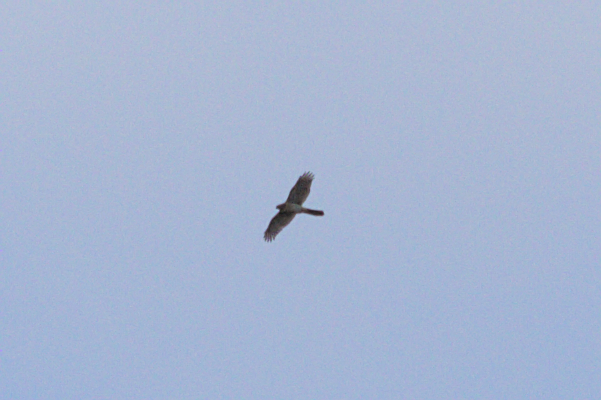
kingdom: Animalia
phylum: Chordata
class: Aves
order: Accipitriformes
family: Accipitridae
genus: Accipiter
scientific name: Accipiter cooperii
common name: Cooper's hawk
